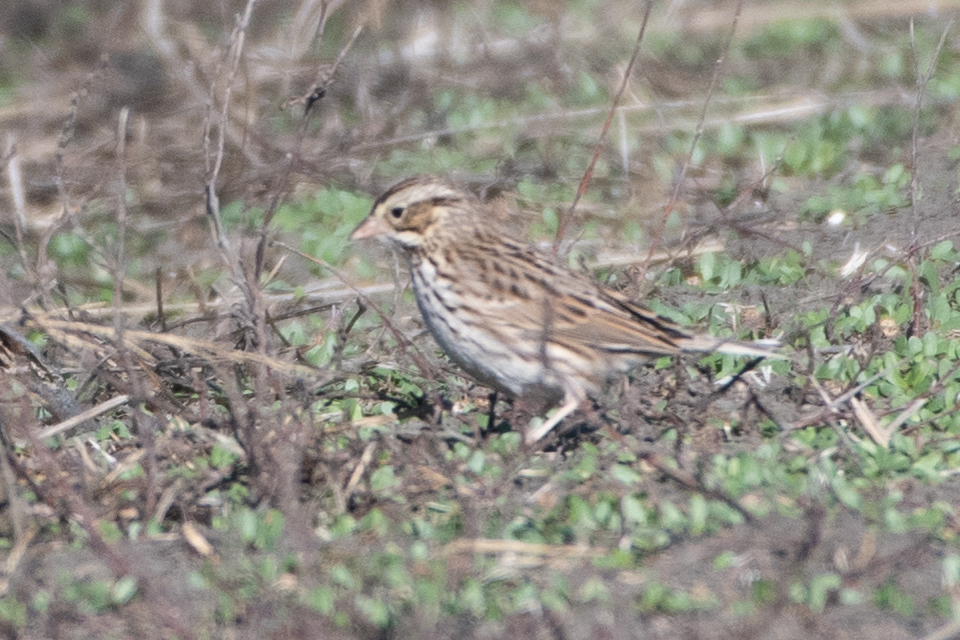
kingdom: Animalia
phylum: Chordata
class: Aves
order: Passeriformes
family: Passerellidae
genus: Passerculus
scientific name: Passerculus sandwichensis
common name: Savannah sparrow
